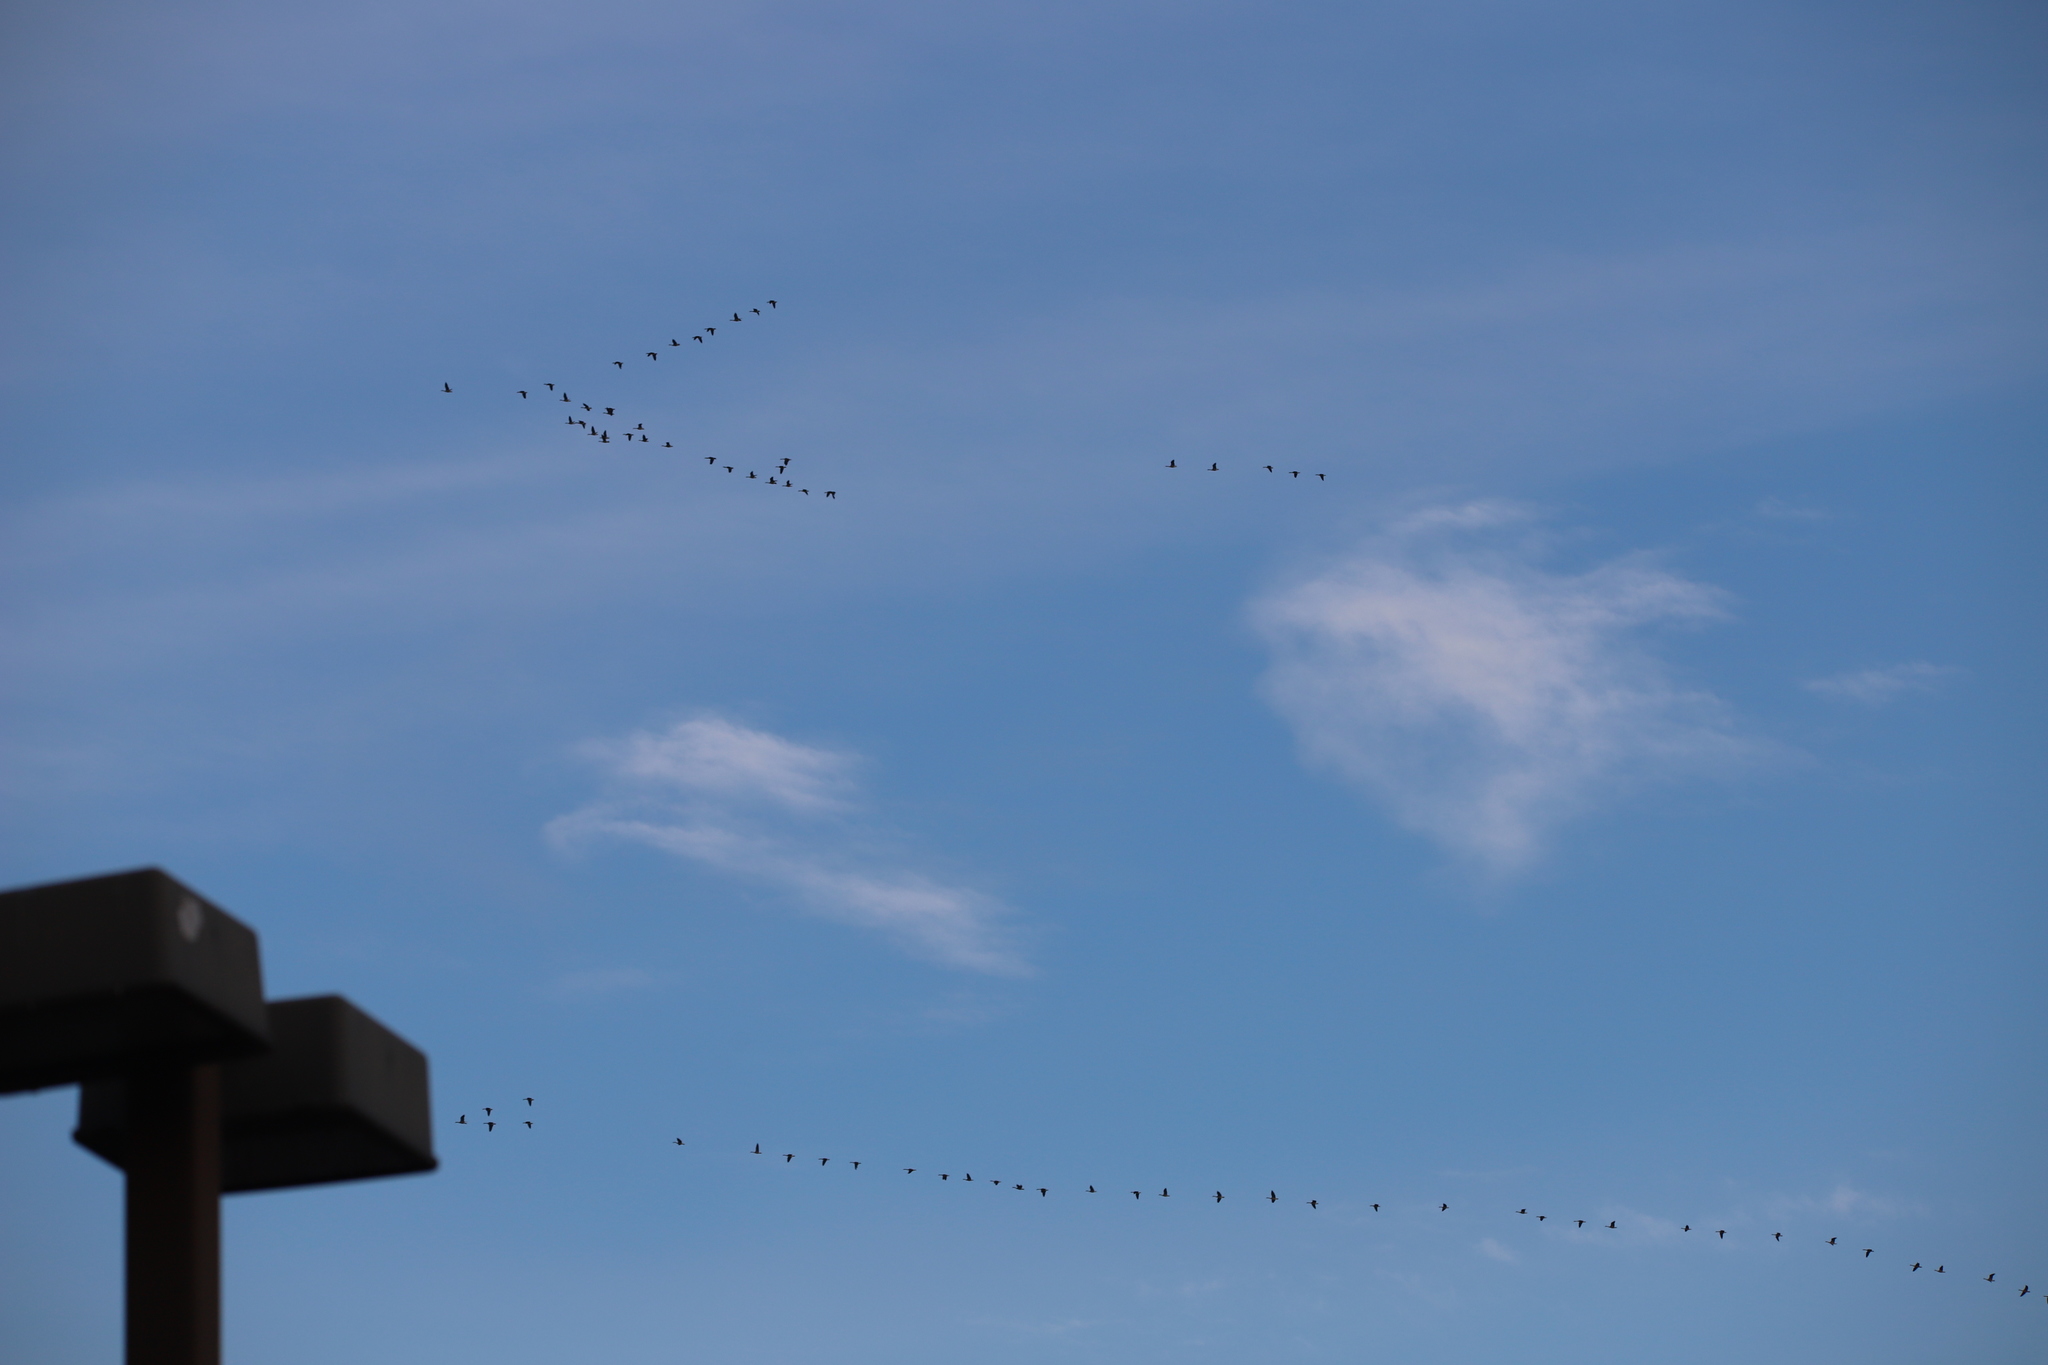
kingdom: Animalia
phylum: Chordata
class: Aves
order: Anseriformes
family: Anatidae
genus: Branta
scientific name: Branta canadensis
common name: Canada goose
